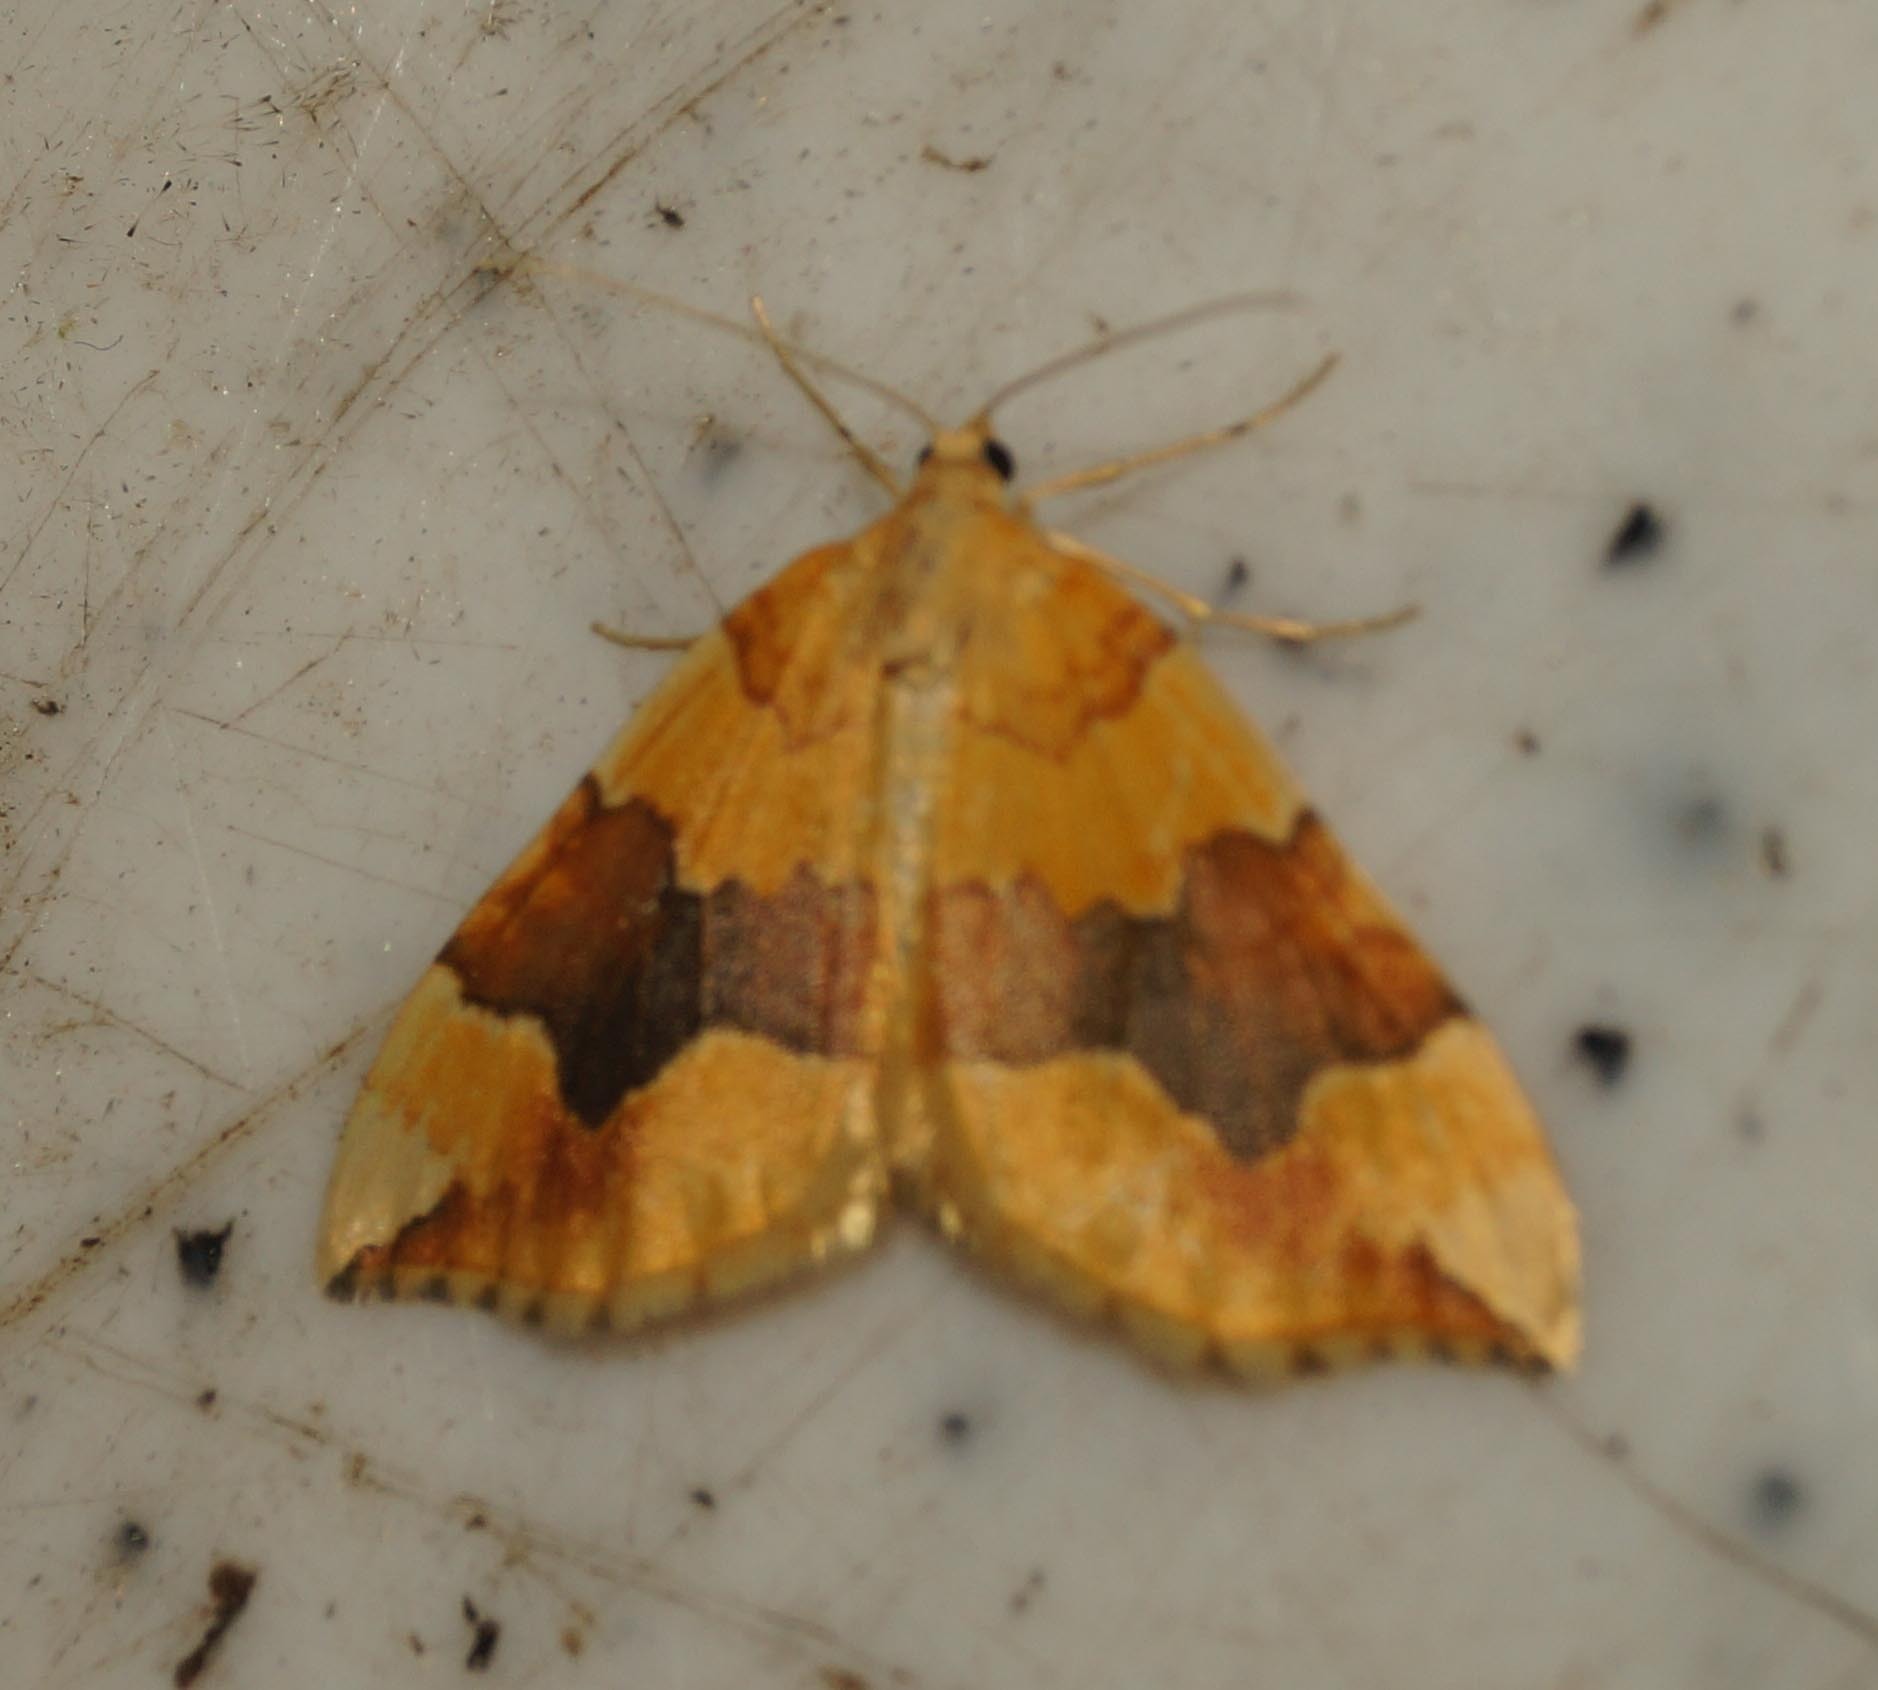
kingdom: Animalia
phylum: Arthropoda
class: Insecta
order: Lepidoptera
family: Geometridae
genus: Cidaria
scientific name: Cidaria fulvata
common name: Barred yellow
